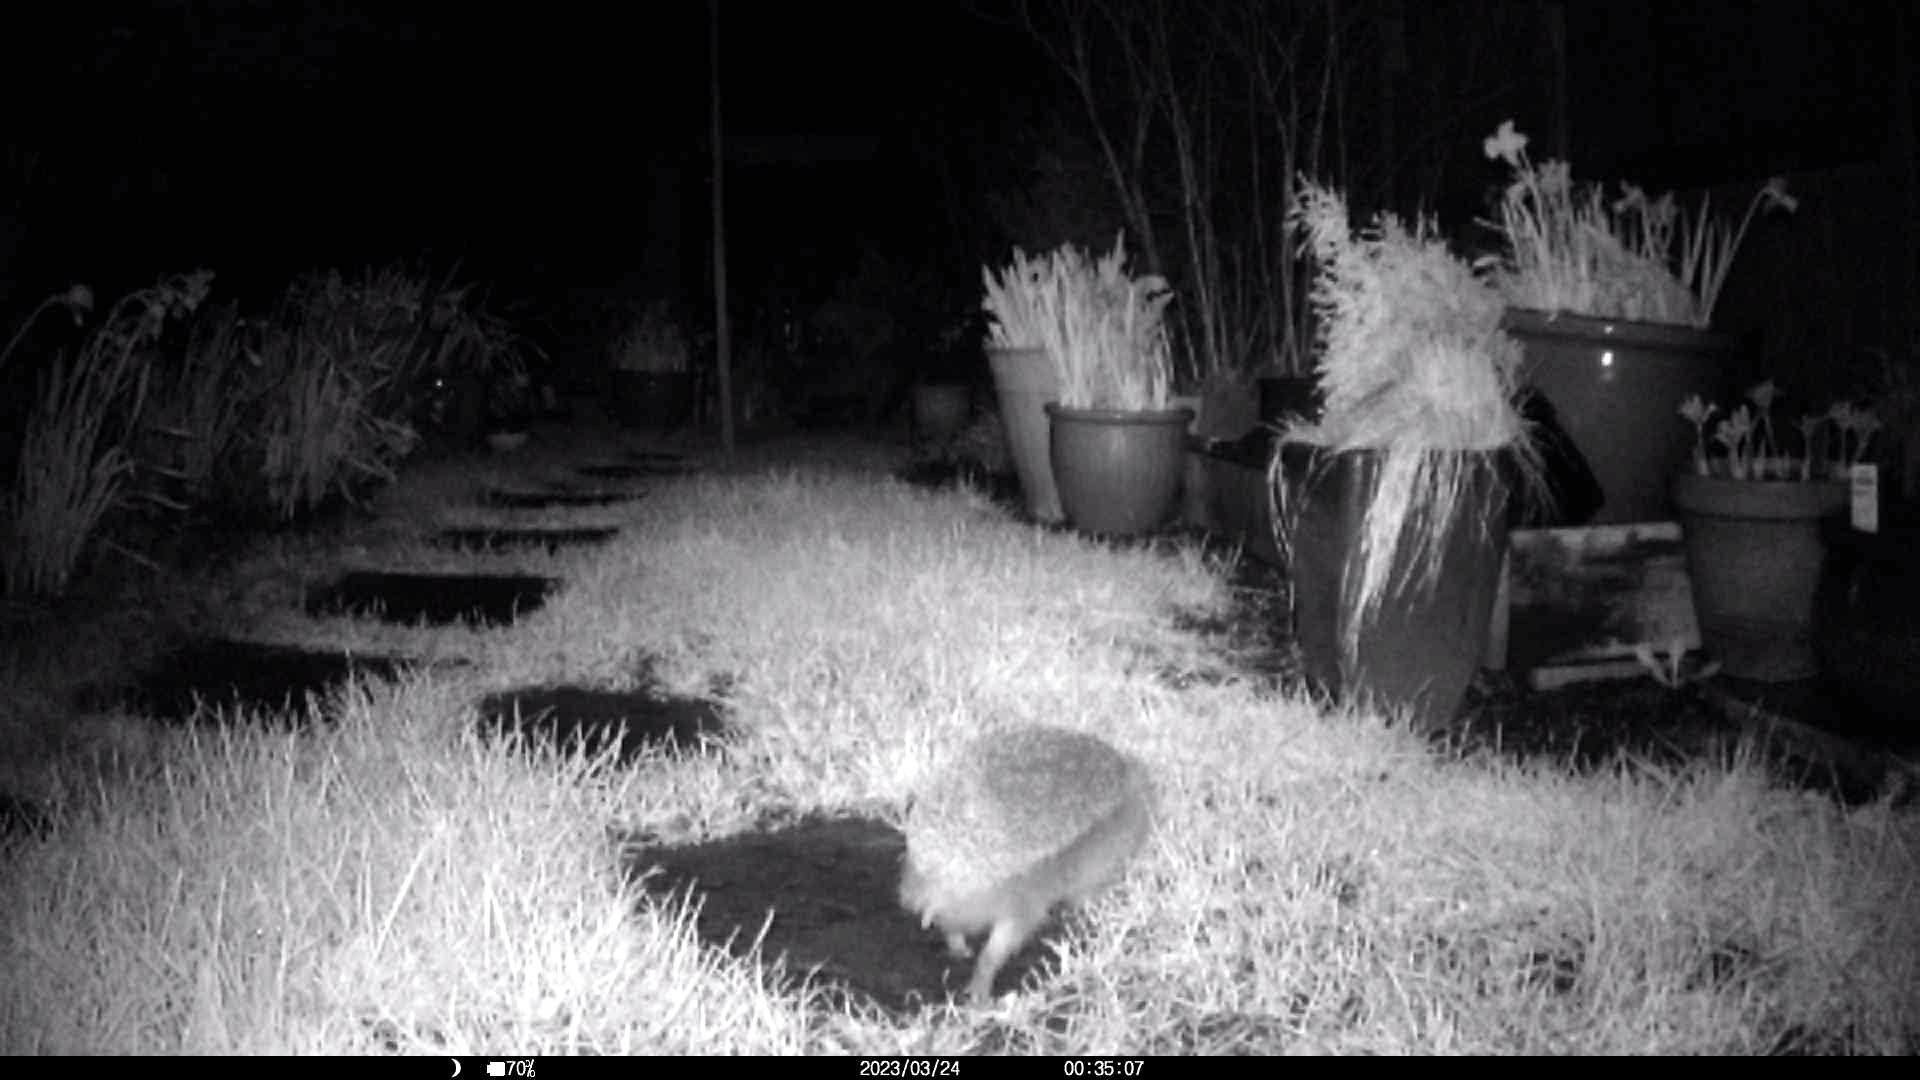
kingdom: Animalia
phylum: Chordata
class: Mammalia
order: Erinaceomorpha
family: Erinaceidae
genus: Erinaceus
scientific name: Erinaceus europaeus
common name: West european hedgehog
